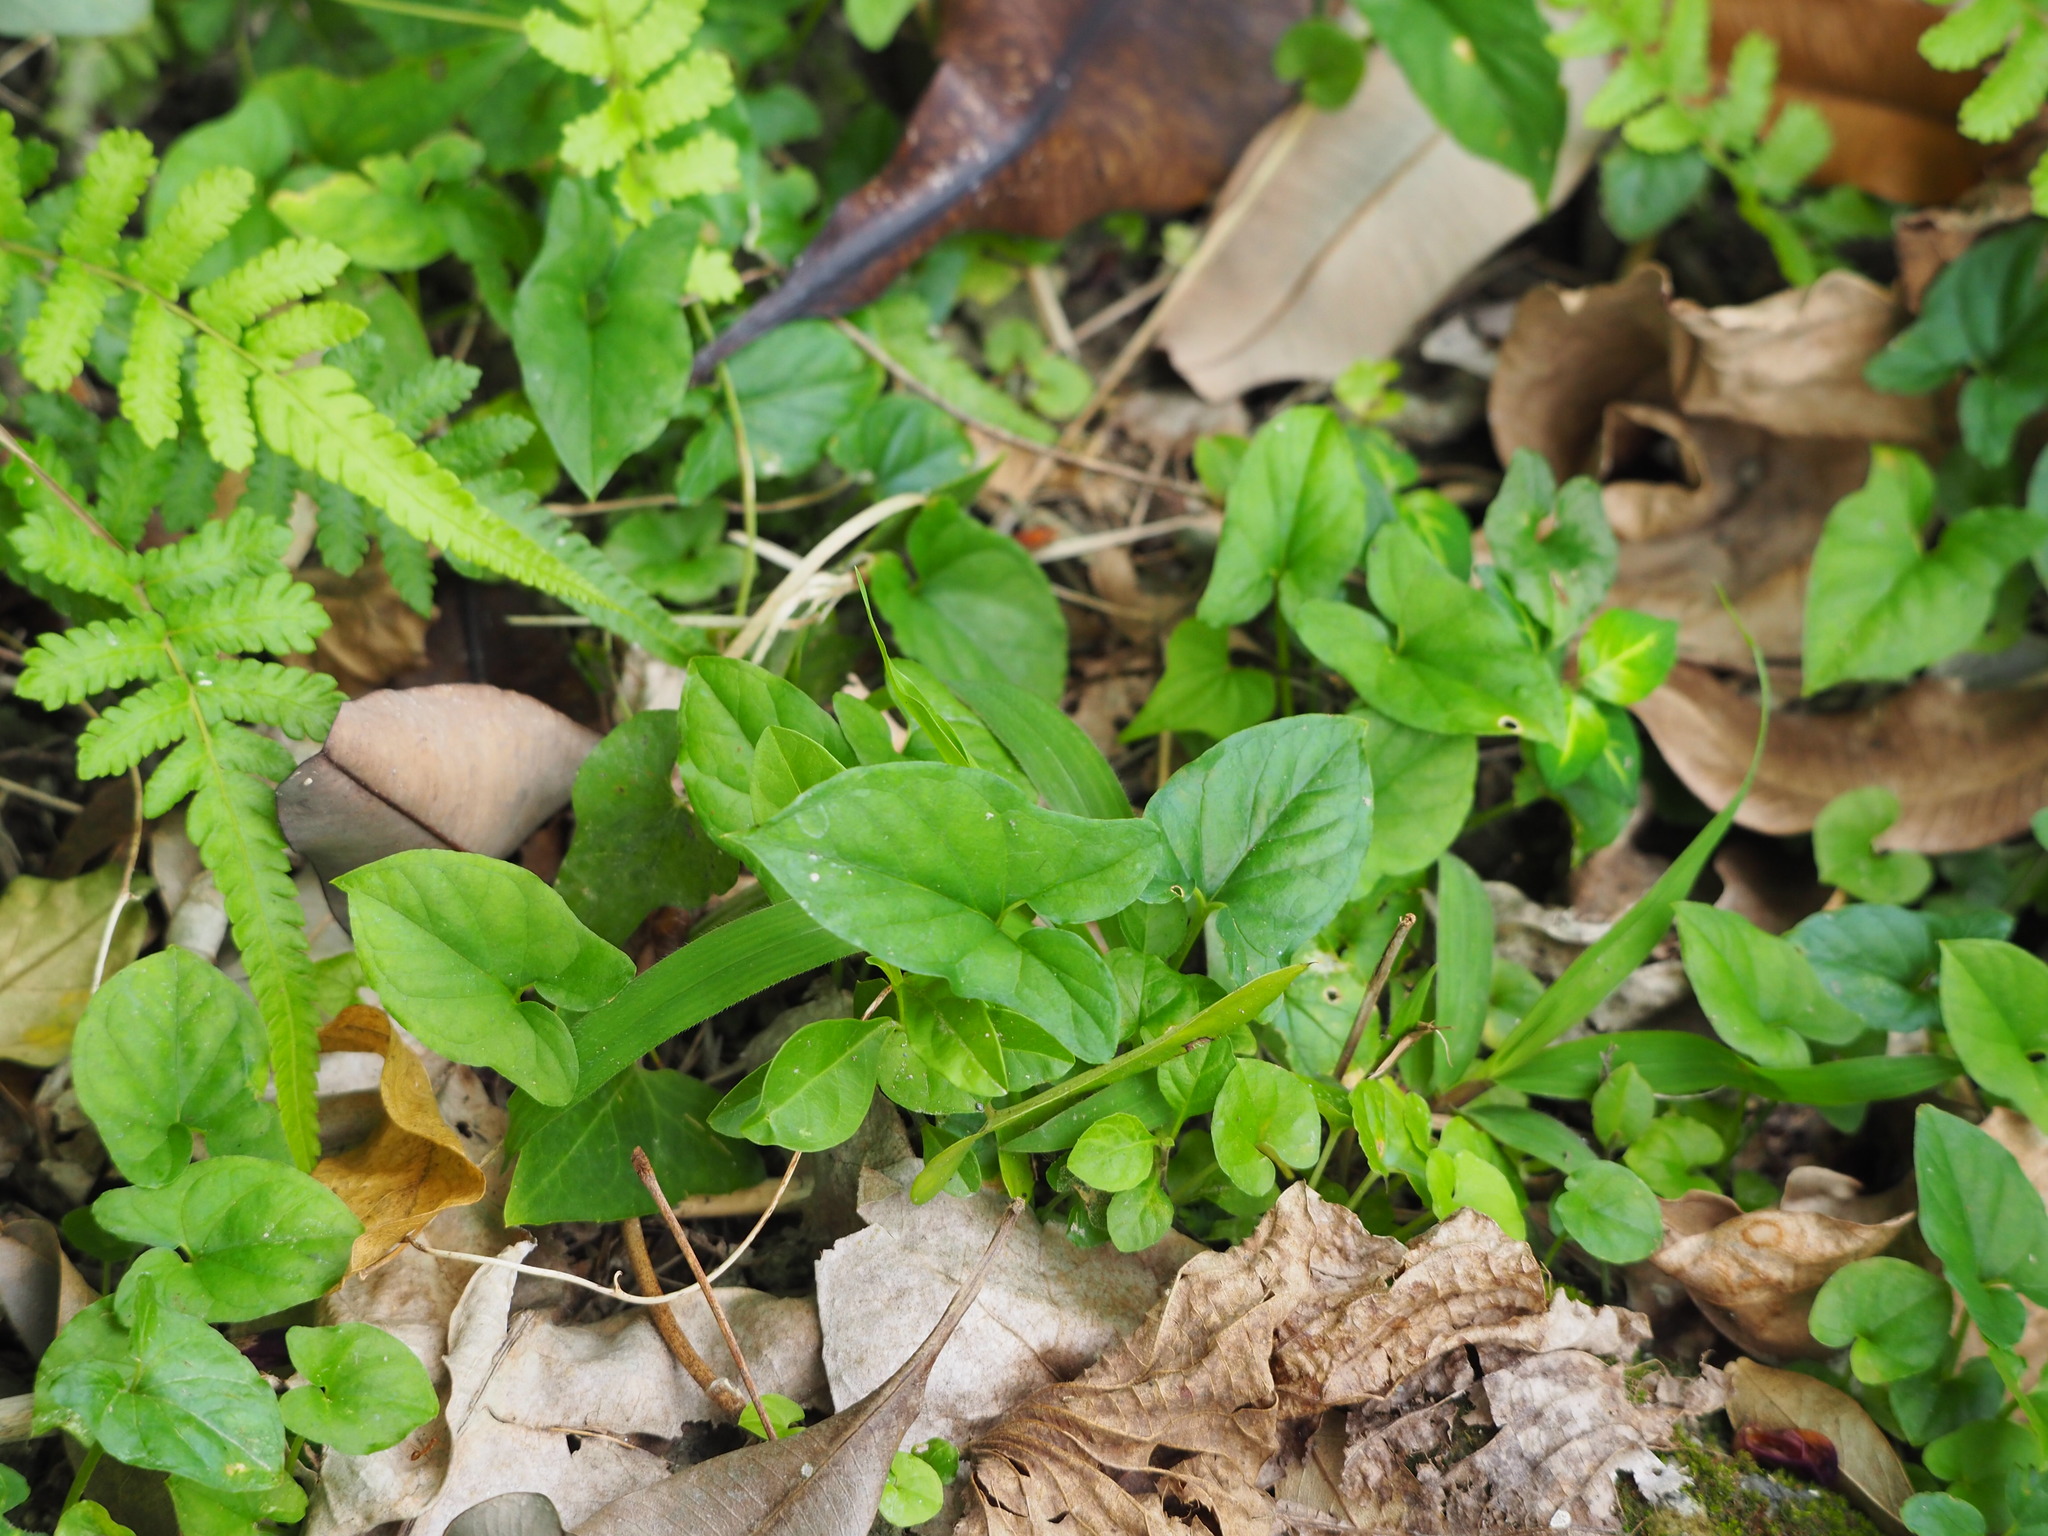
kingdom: Plantae
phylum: Tracheophyta
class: Liliopsida
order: Alismatales
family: Araceae
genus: Typhonium
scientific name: Typhonium blumei
